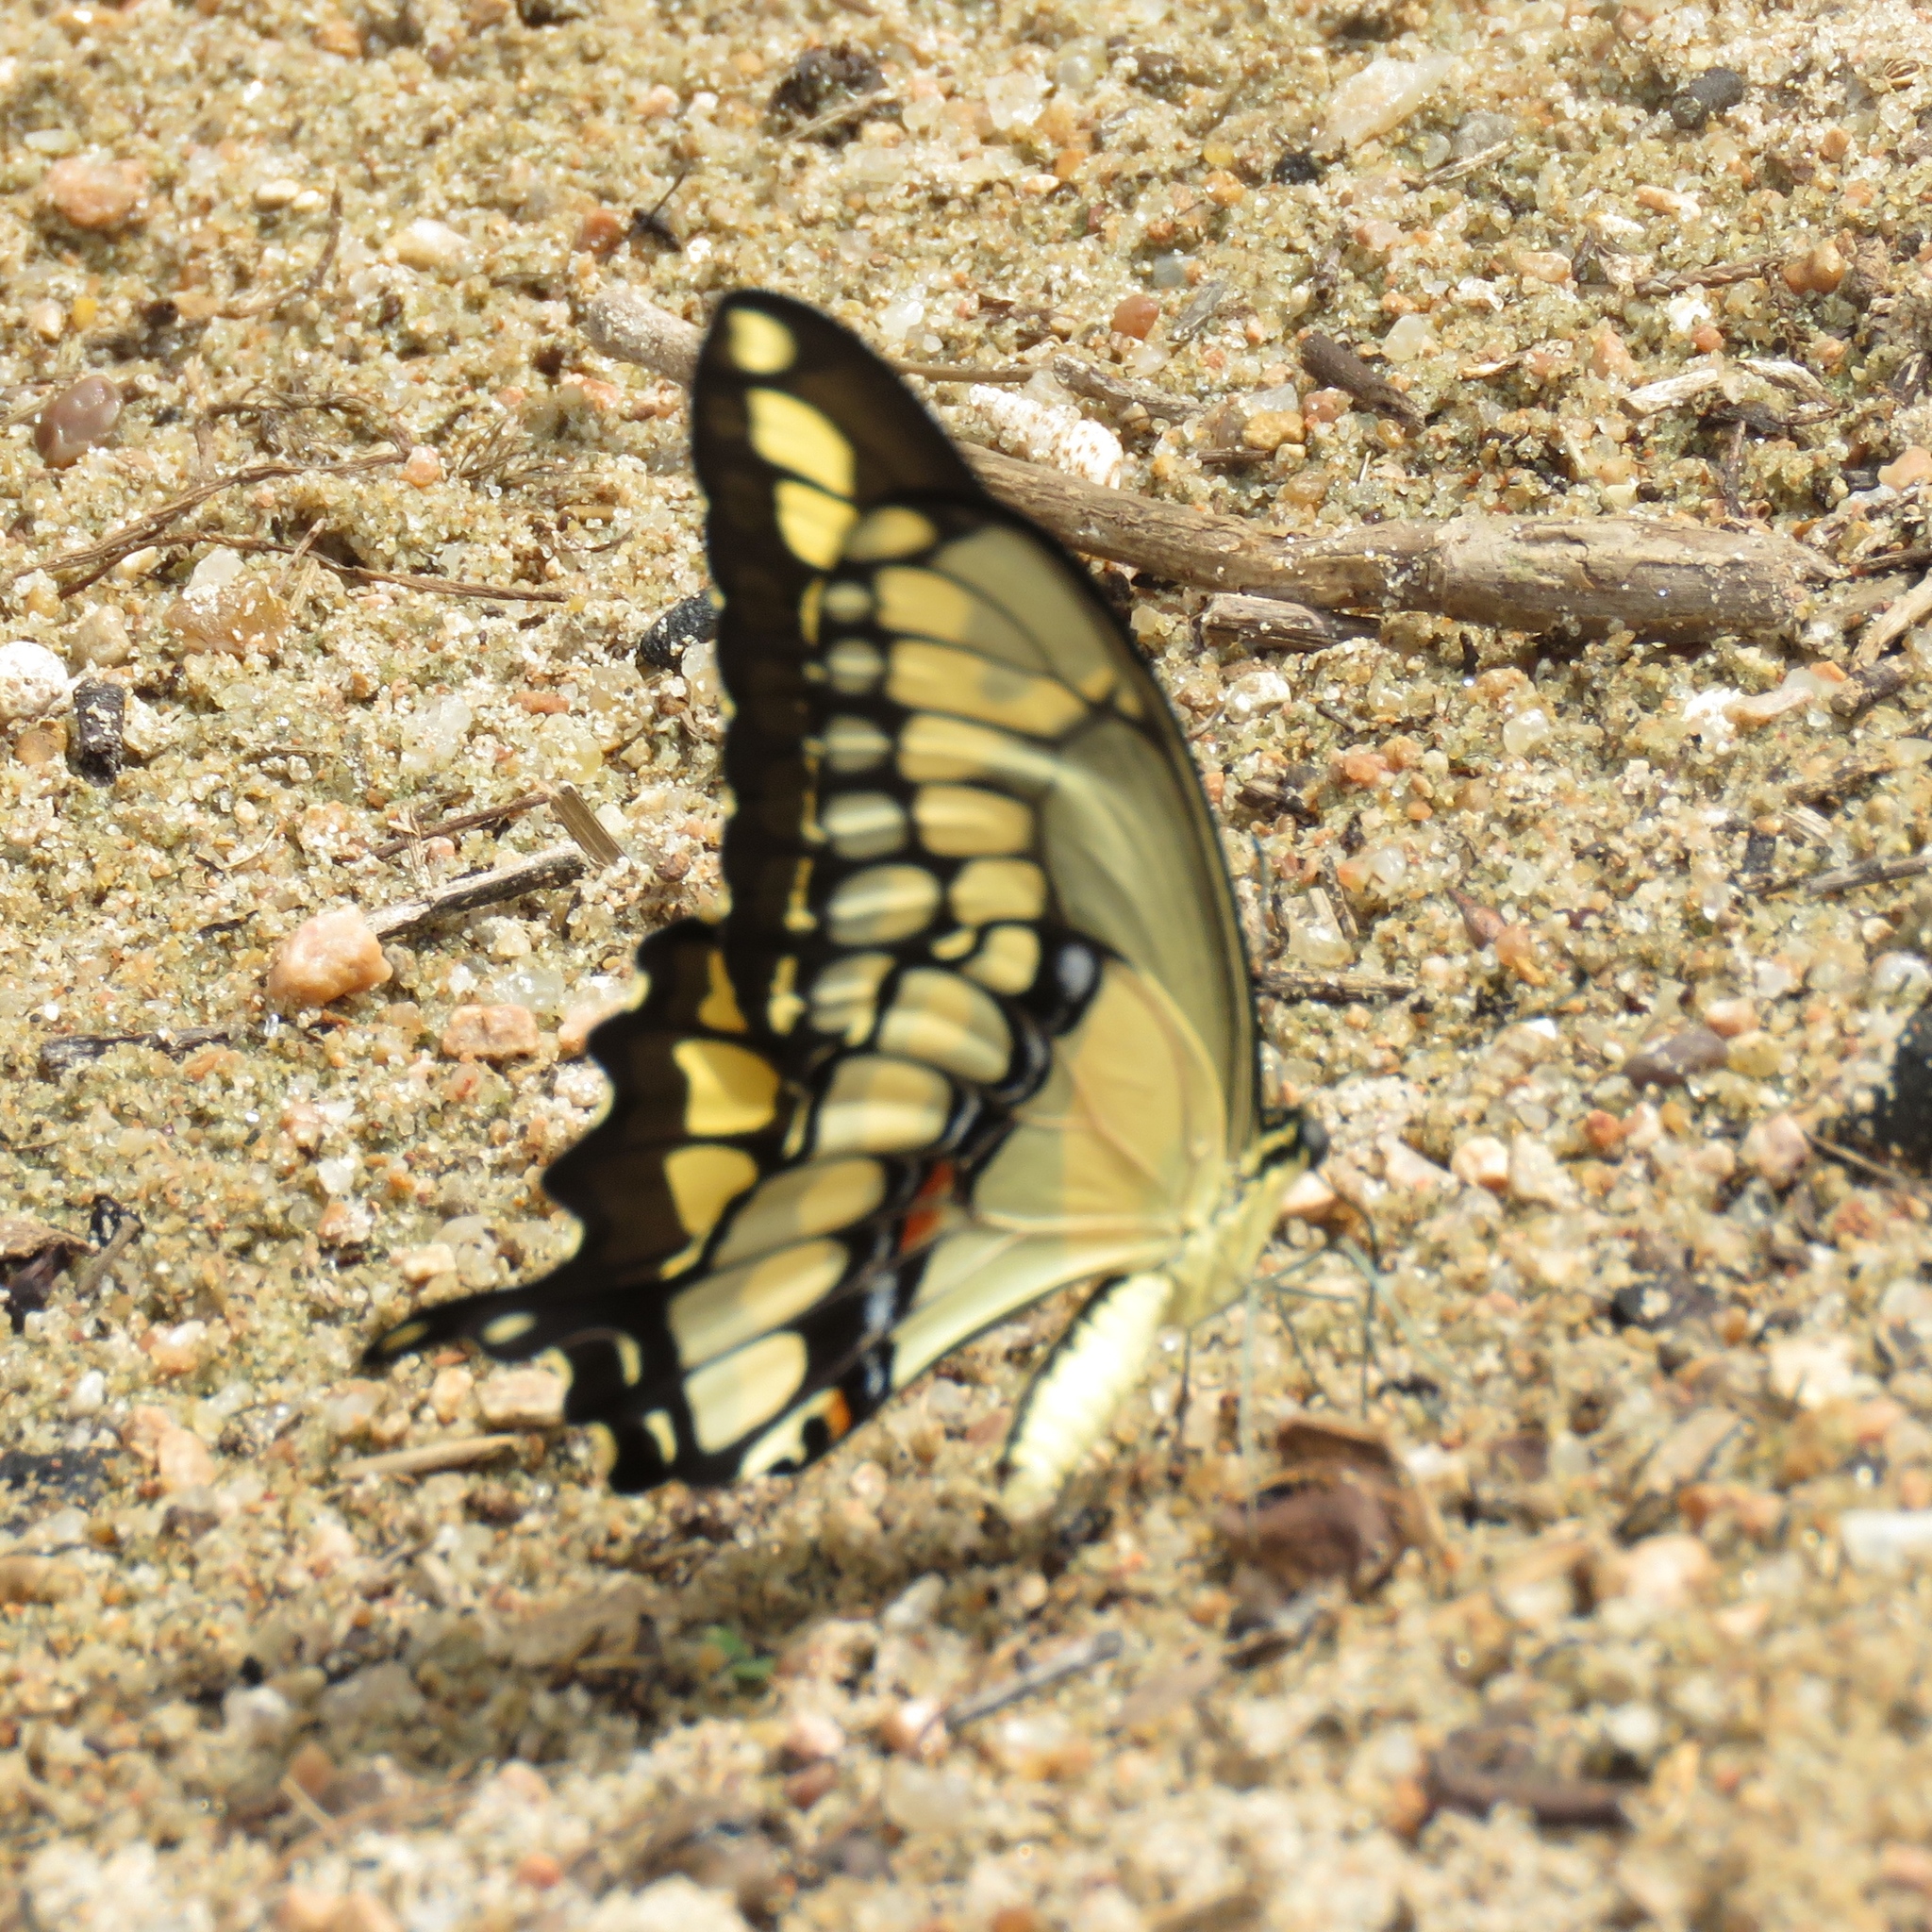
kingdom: Animalia
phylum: Arthropoda
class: Insecta
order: Lepidoptera
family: Papilionidae
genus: Papilio
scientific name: Papilio cresphontes
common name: Giant swallowtail
